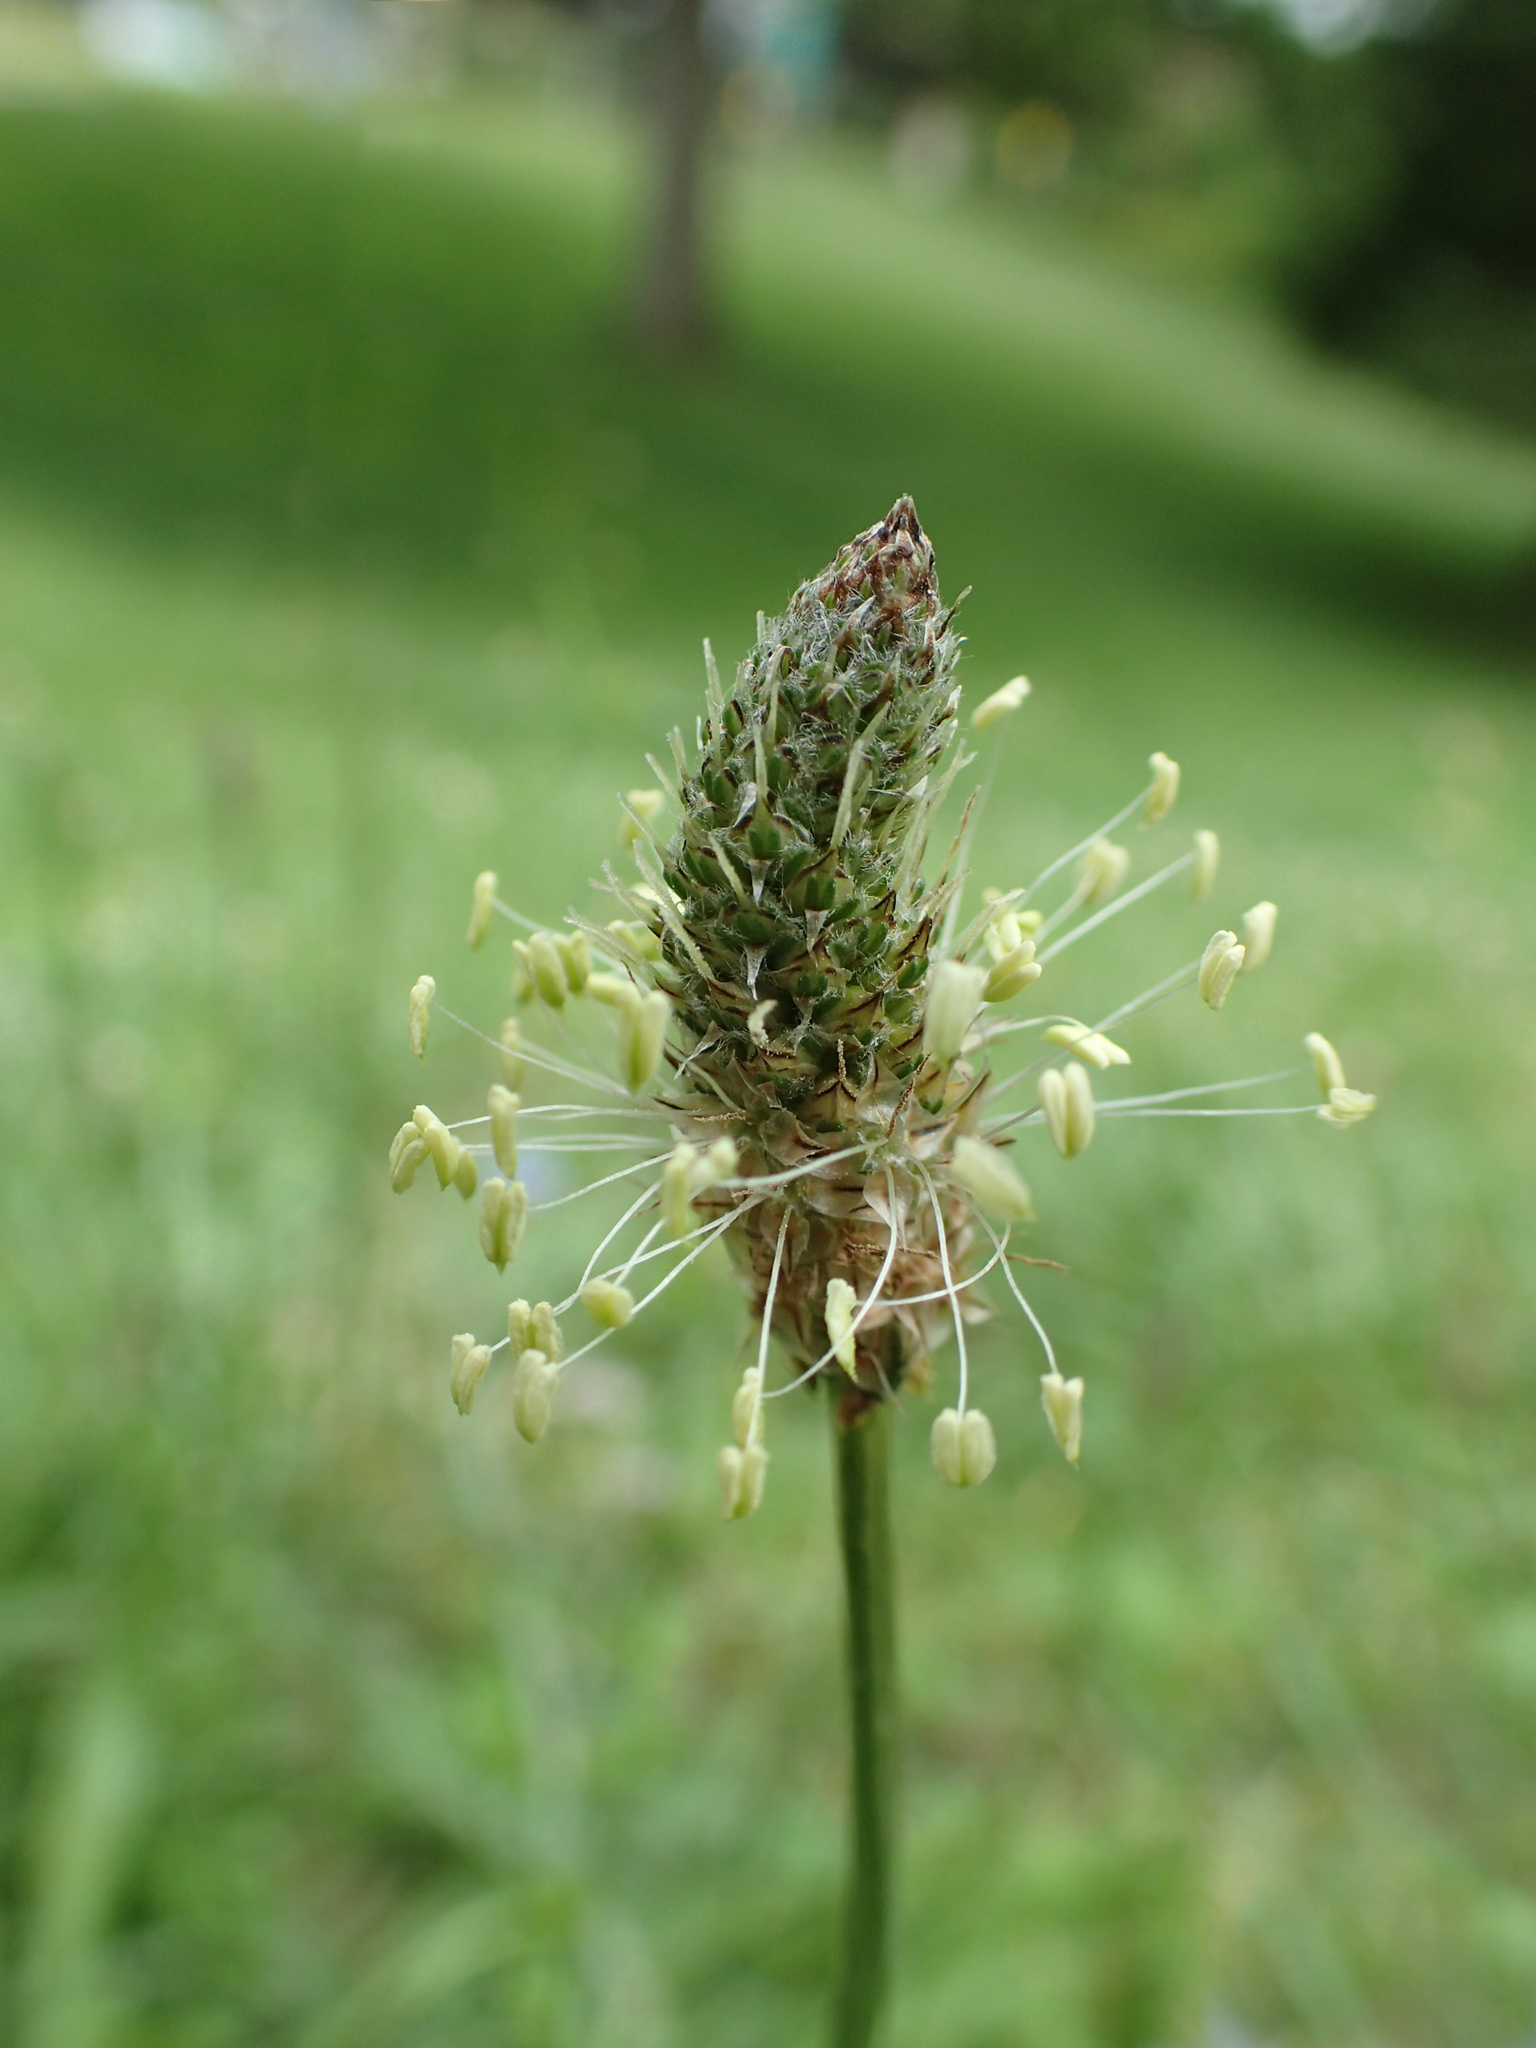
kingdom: Plantae
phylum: Tracheophyta
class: Magnoliopsida
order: Lamiales
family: Plantaginaceae
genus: Plantago
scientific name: Plantago lanceolata
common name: Ribwort plantain
